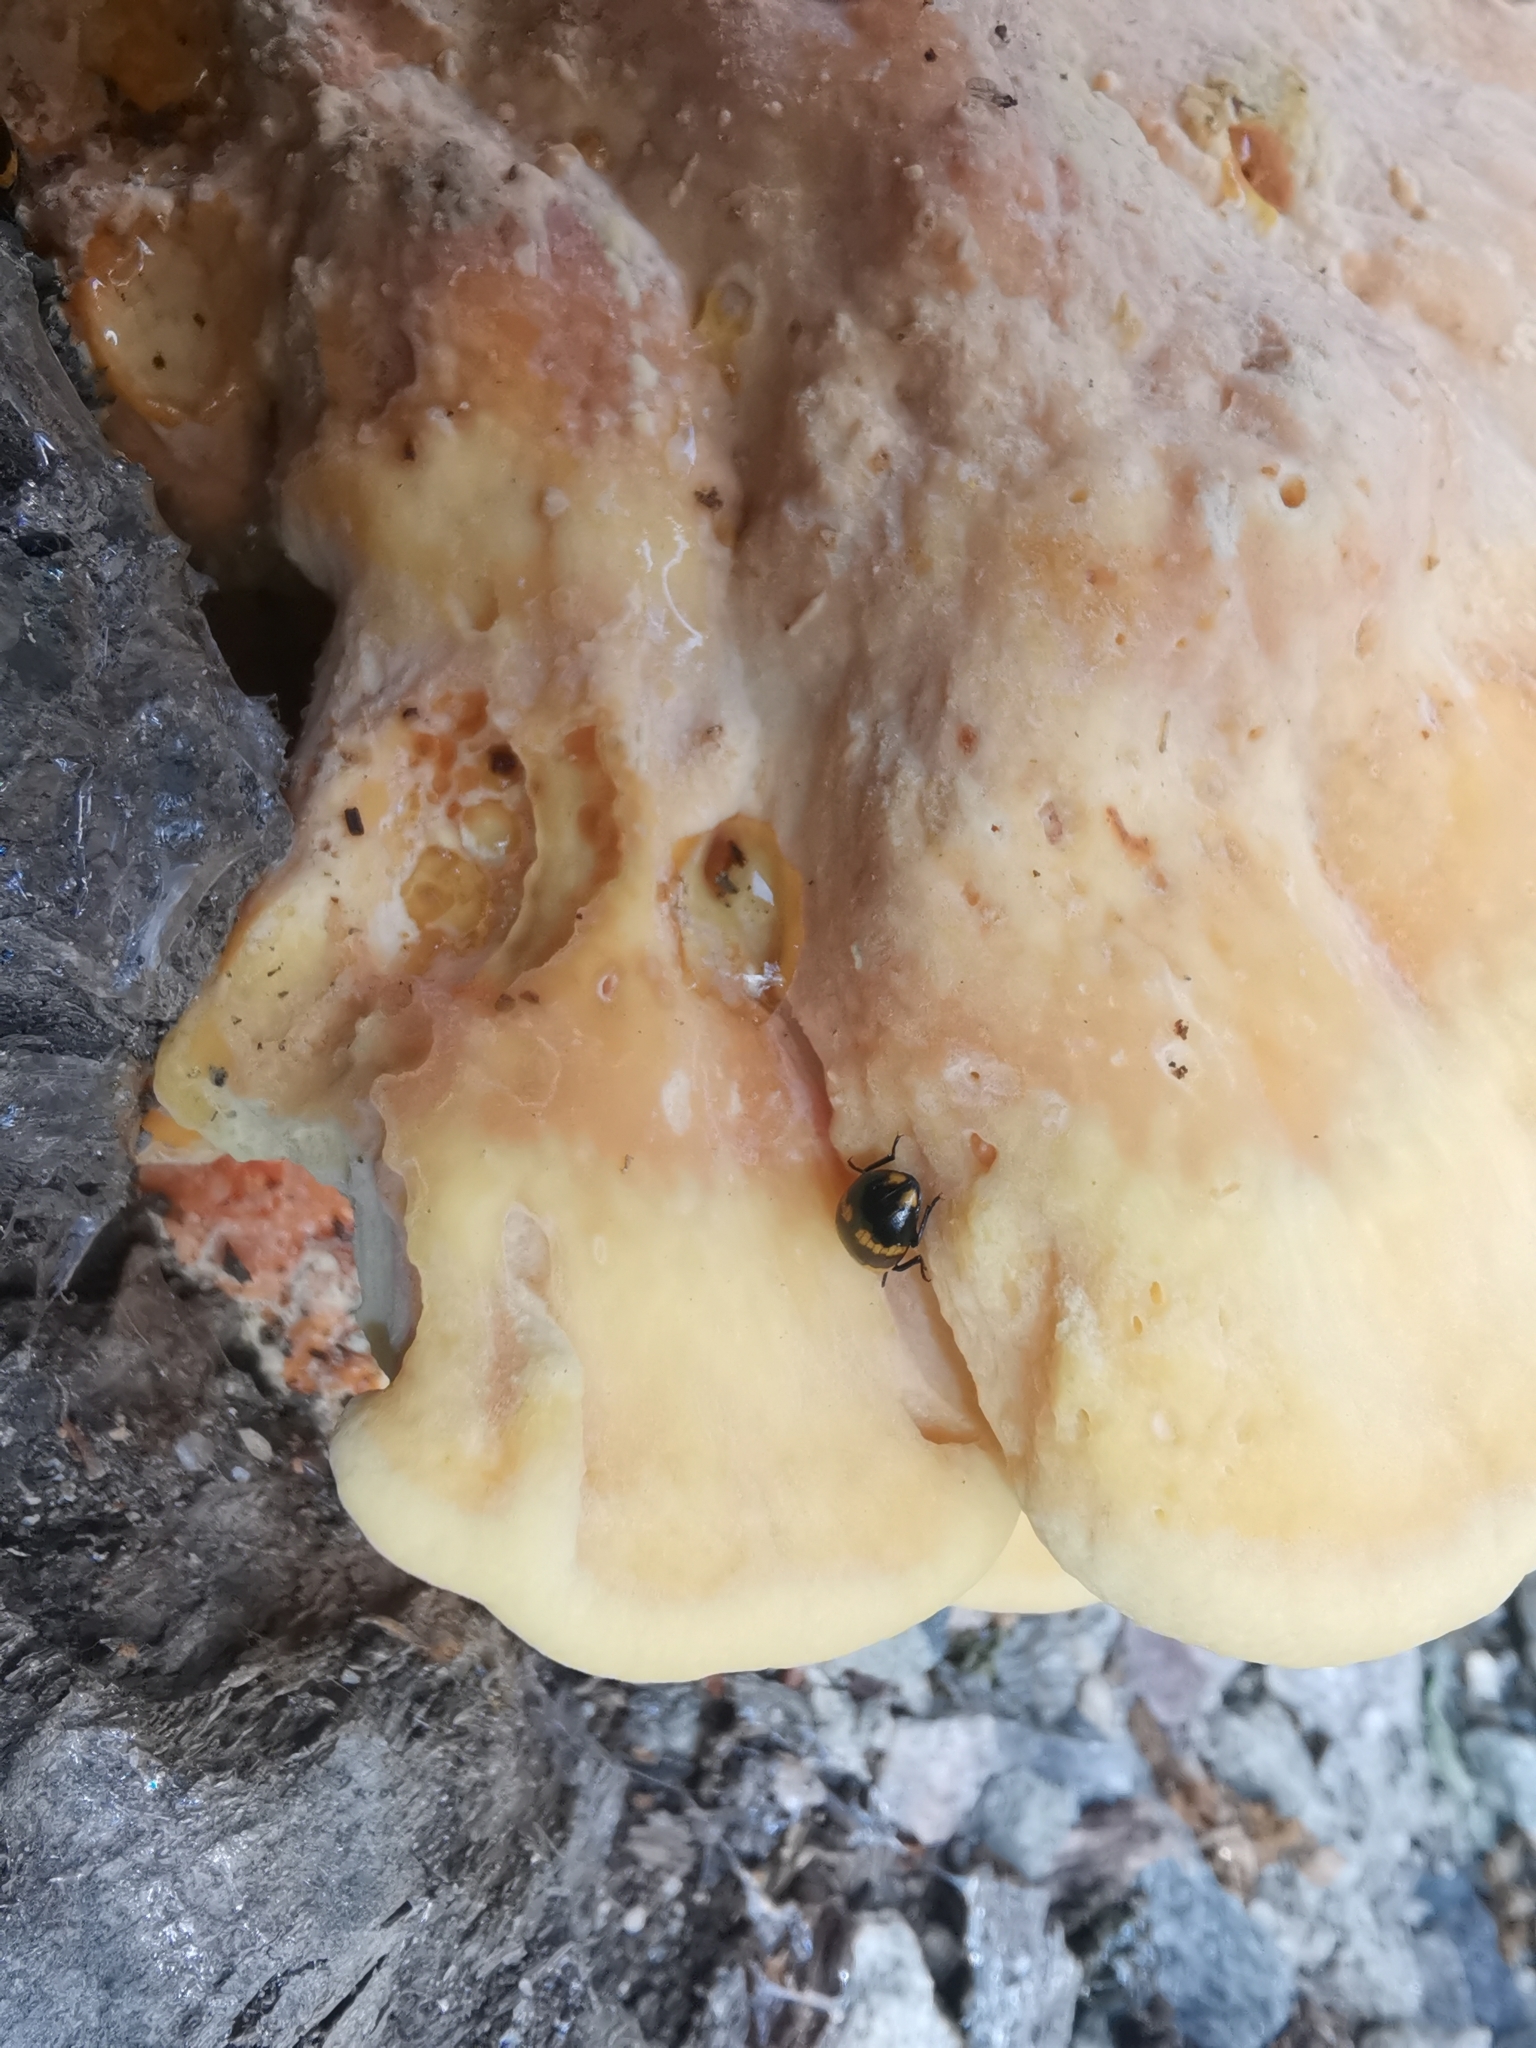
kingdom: Animalia
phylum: Arthropoda
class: Insecta
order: Coleoptera
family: Tenebrionidae
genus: Diaperis
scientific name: Diaperis boleti
